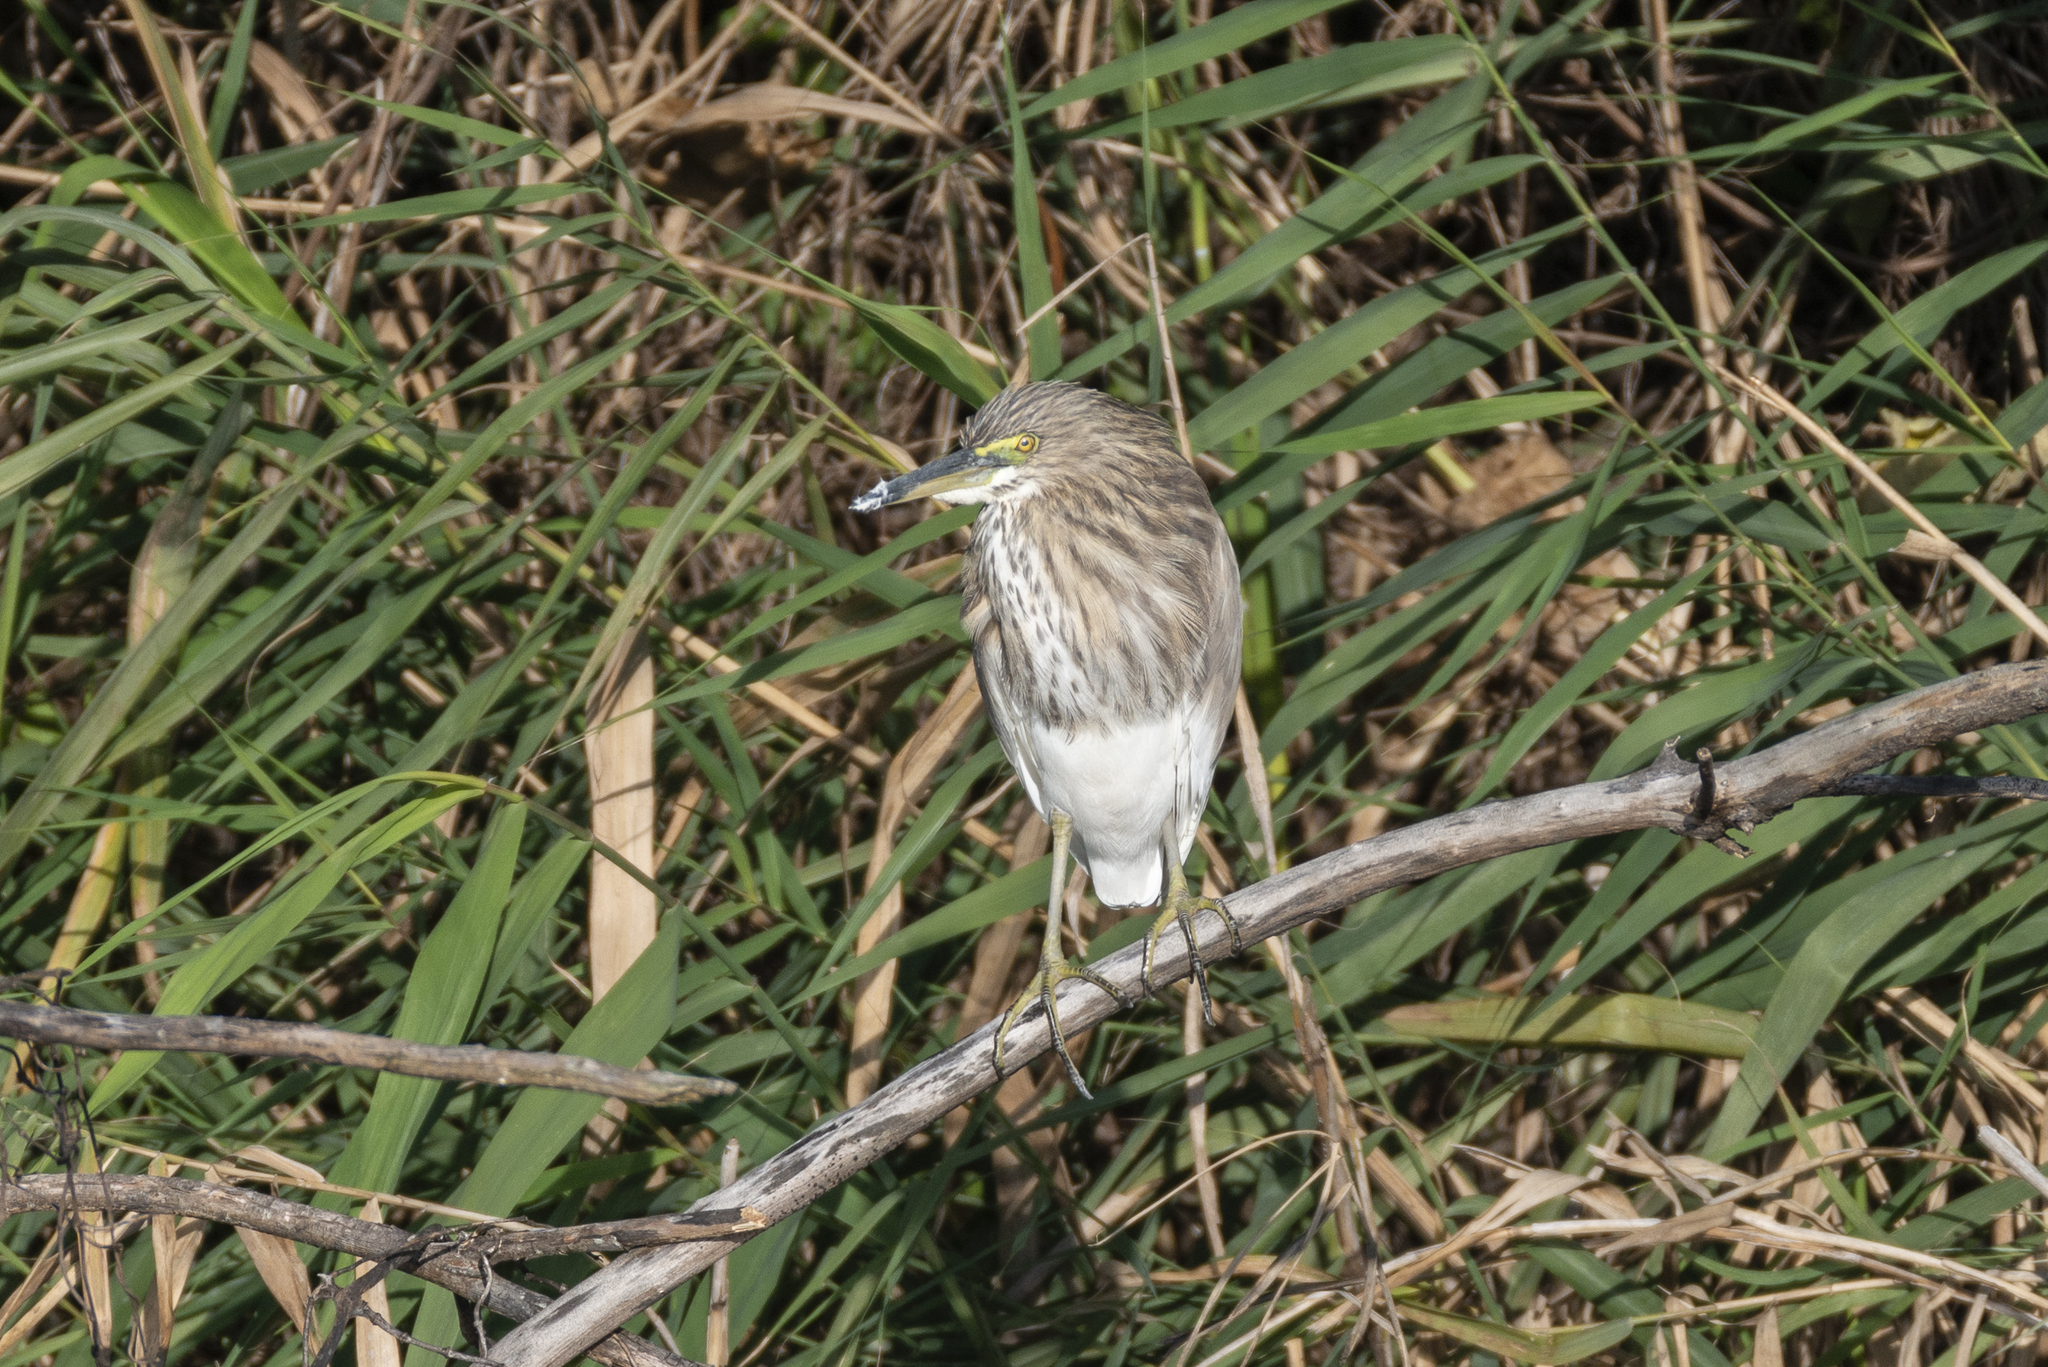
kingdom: Animalia
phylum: Chordata
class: Aves
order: Pelecaniformes
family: Ardeidae
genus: Ardeola
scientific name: Ardeola bacchus
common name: Chinese pond heron
